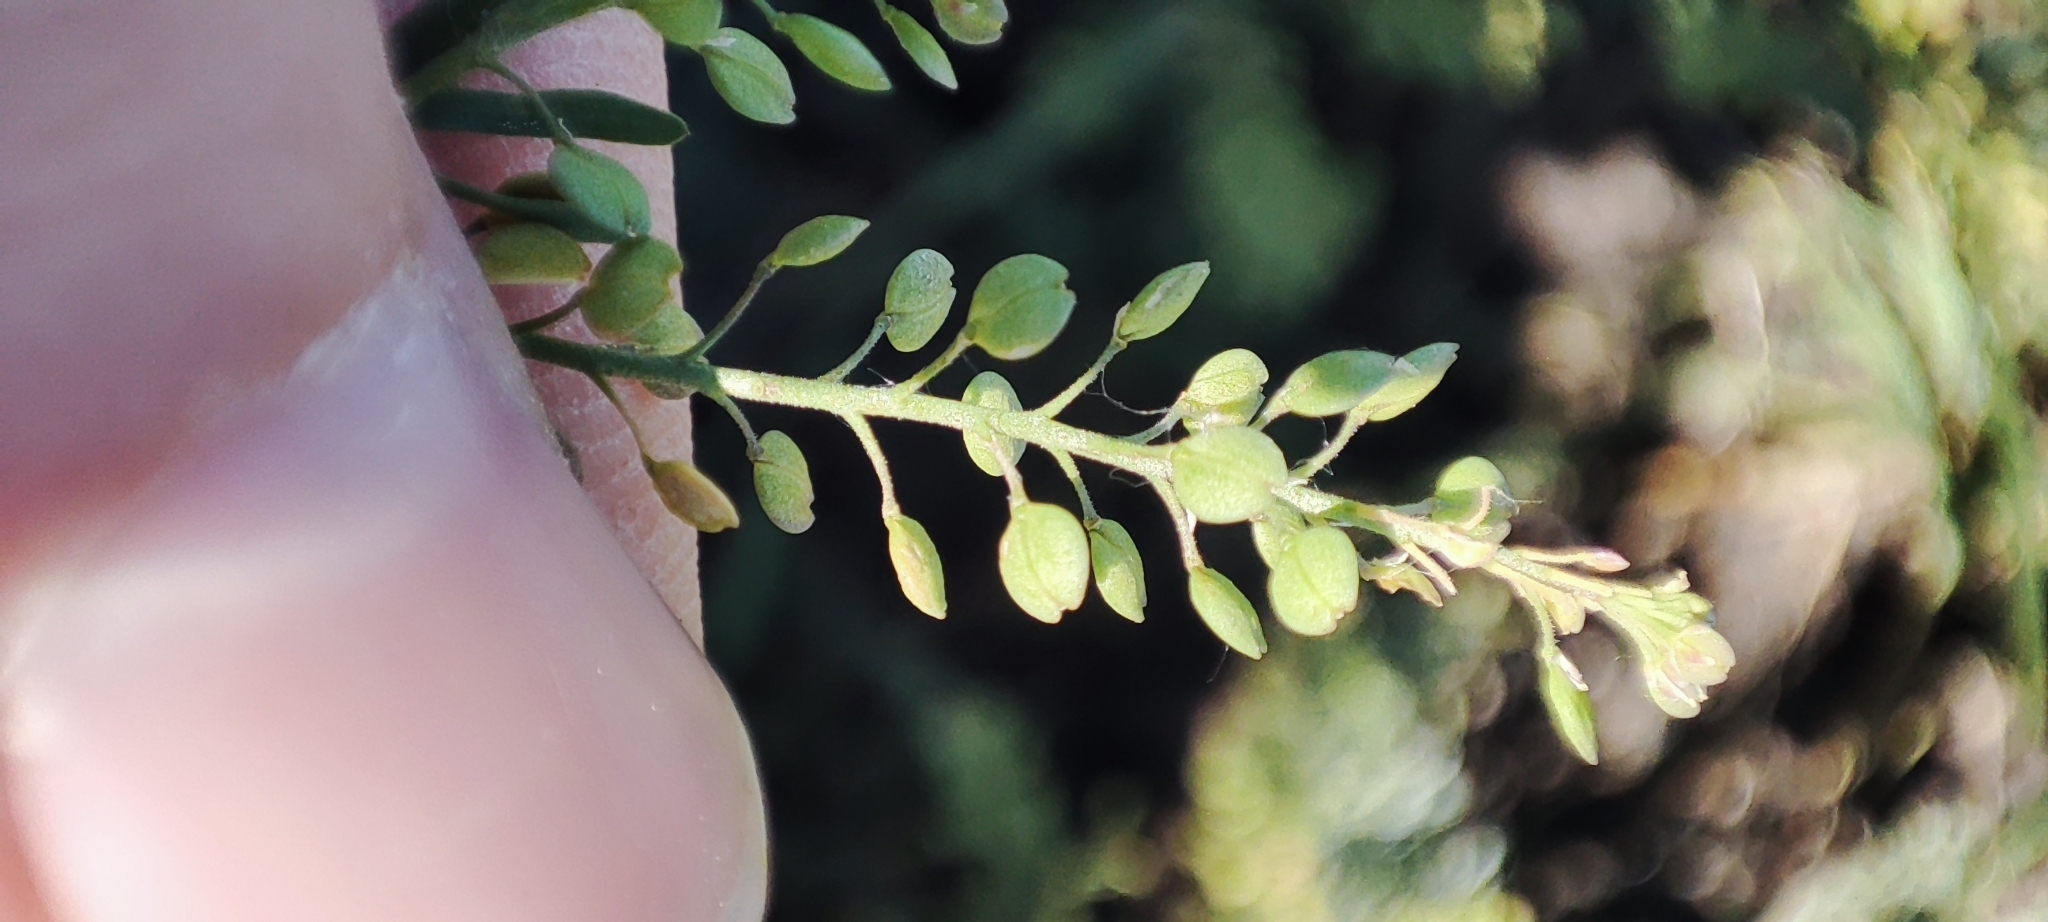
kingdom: Plantae
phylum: Tracheophyta
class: Magnoliopsida
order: Brassicales
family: Brassicaceae
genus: Lepidium
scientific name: Lepidium ruderale
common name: Narrow-leaved pepperwort
